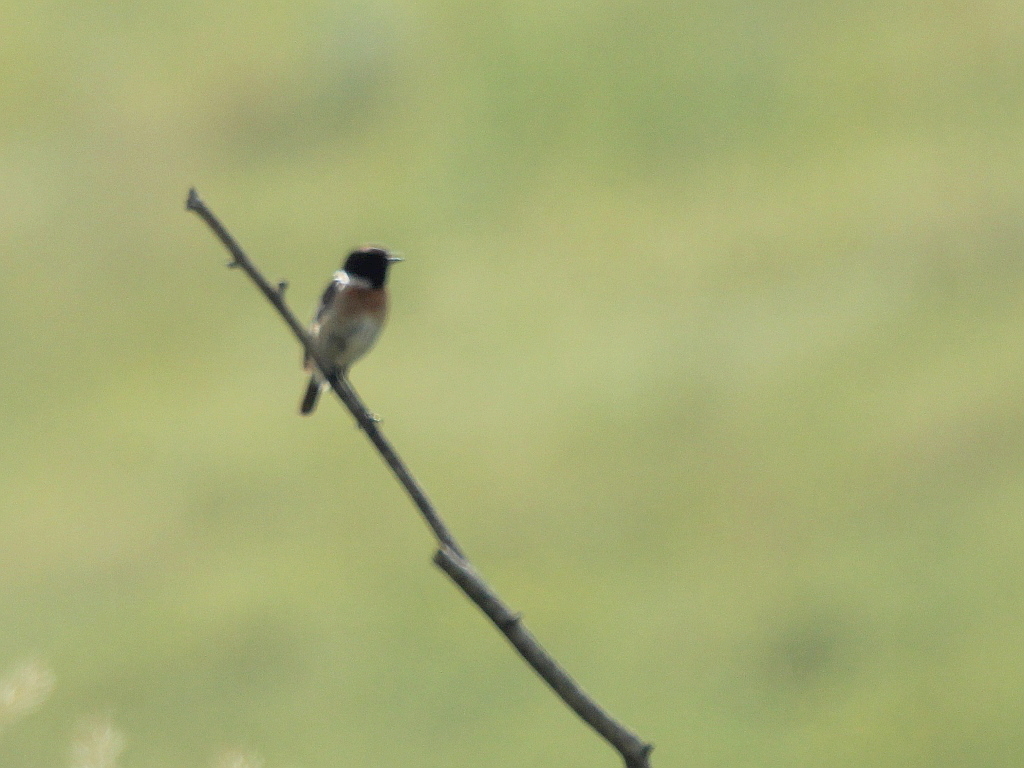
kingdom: Animalia
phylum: Chordata
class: Aves
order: Passeriformes
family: Muscicapidae
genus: Saxicola
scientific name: Saxicola rubicola
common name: European stonechat
